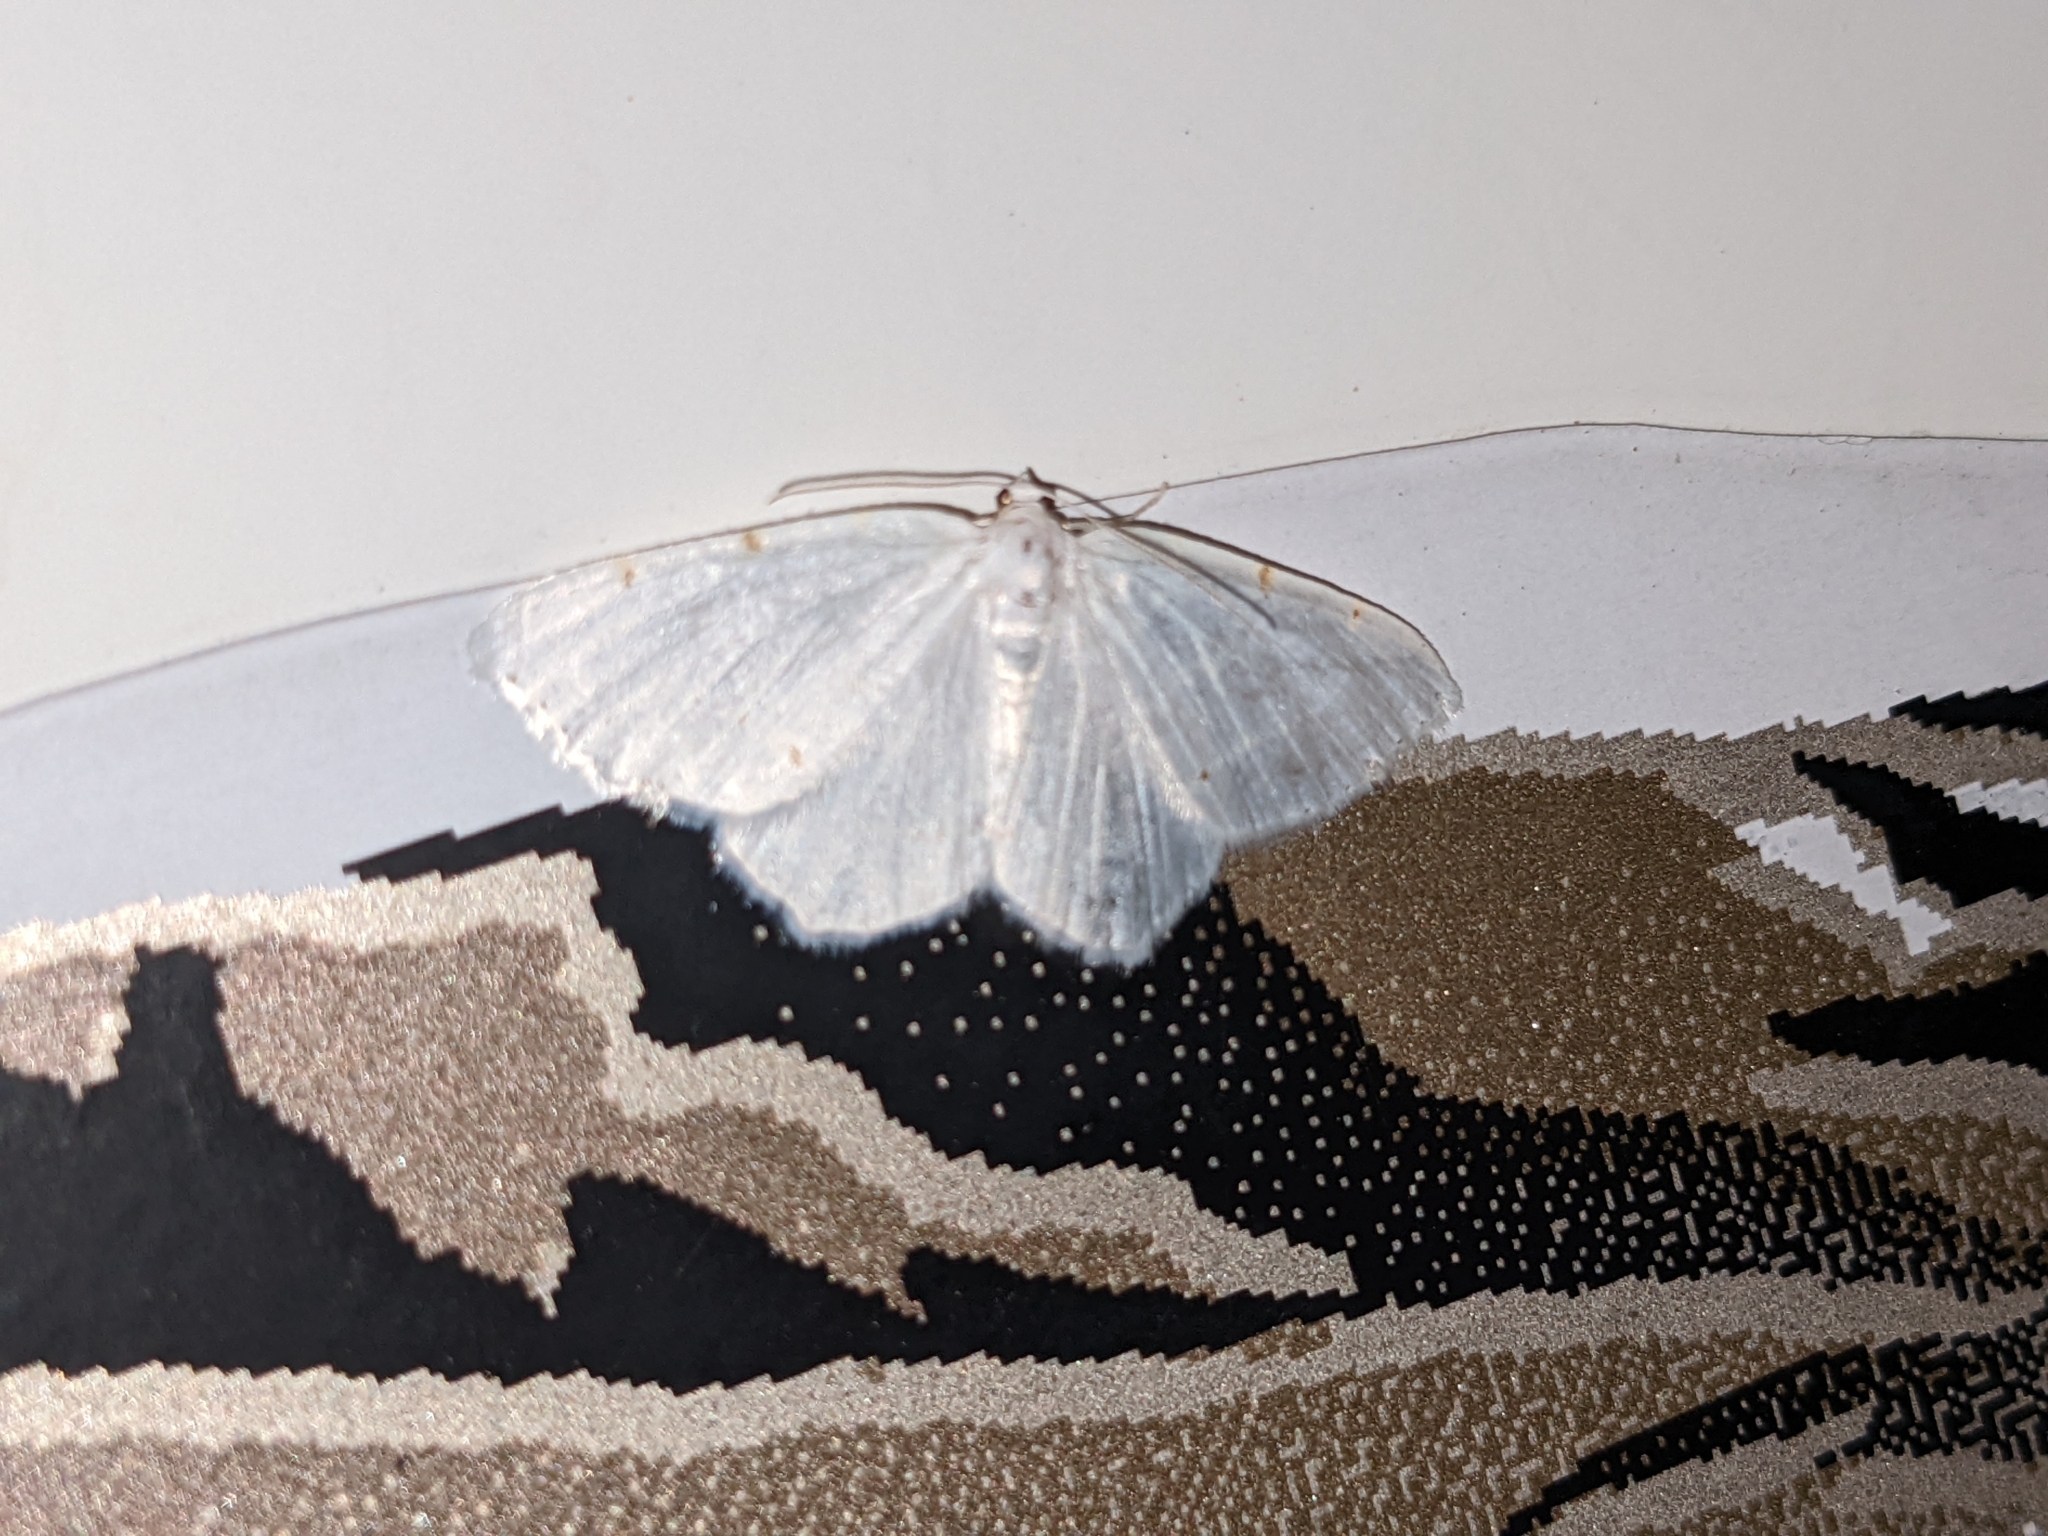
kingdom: Animalia
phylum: Arthropoda
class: Insecta
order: Lepidoptera
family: Geometridae
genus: Macaria
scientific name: Macaria pustularia
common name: Lesser maple spanworm moth
